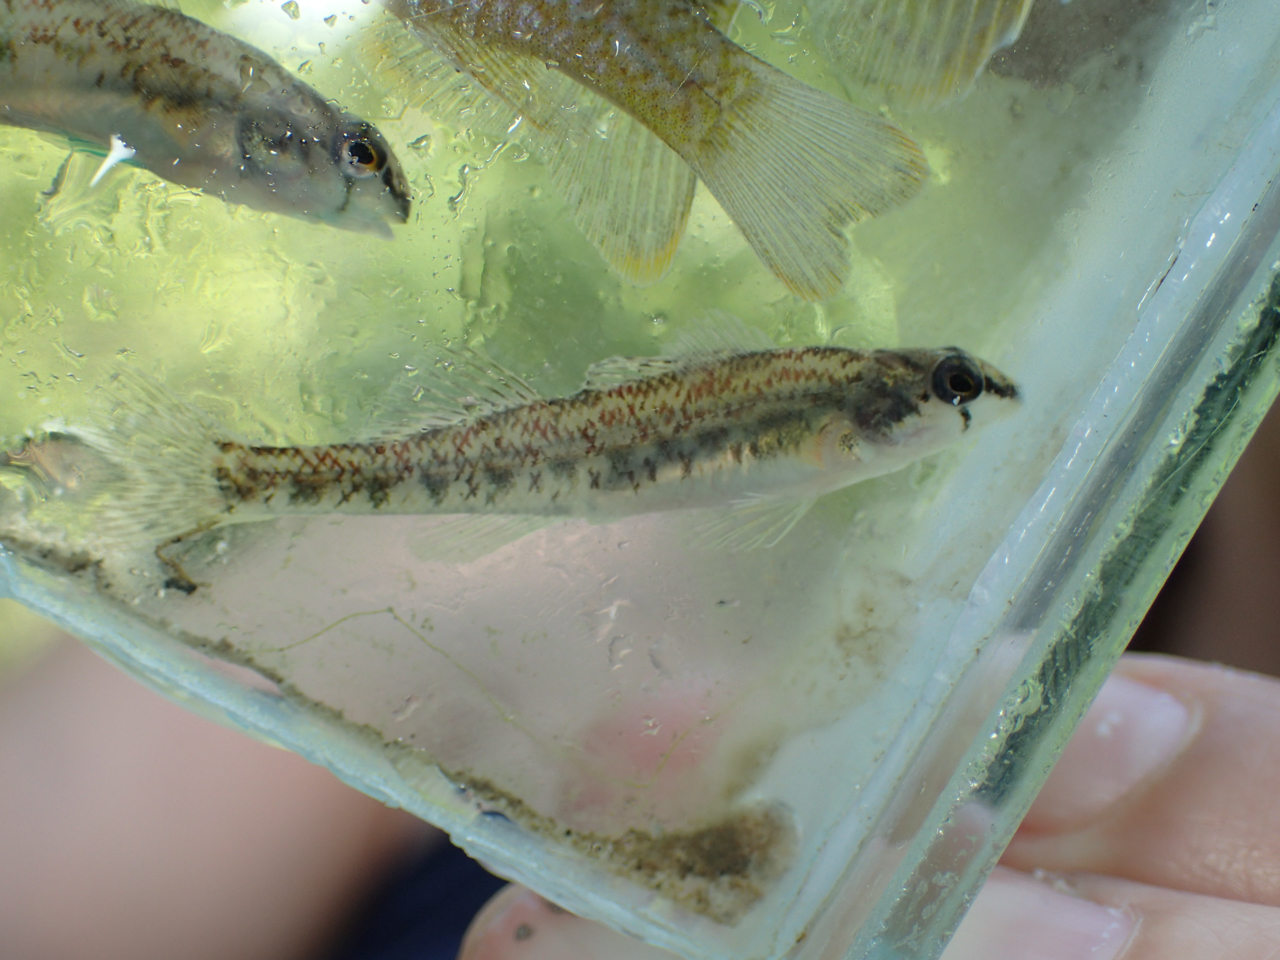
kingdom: Animalia
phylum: Chordata
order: Perciformes
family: Percidae
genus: Etheostoma
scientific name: Etheostoma coosae
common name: Coosa darter
